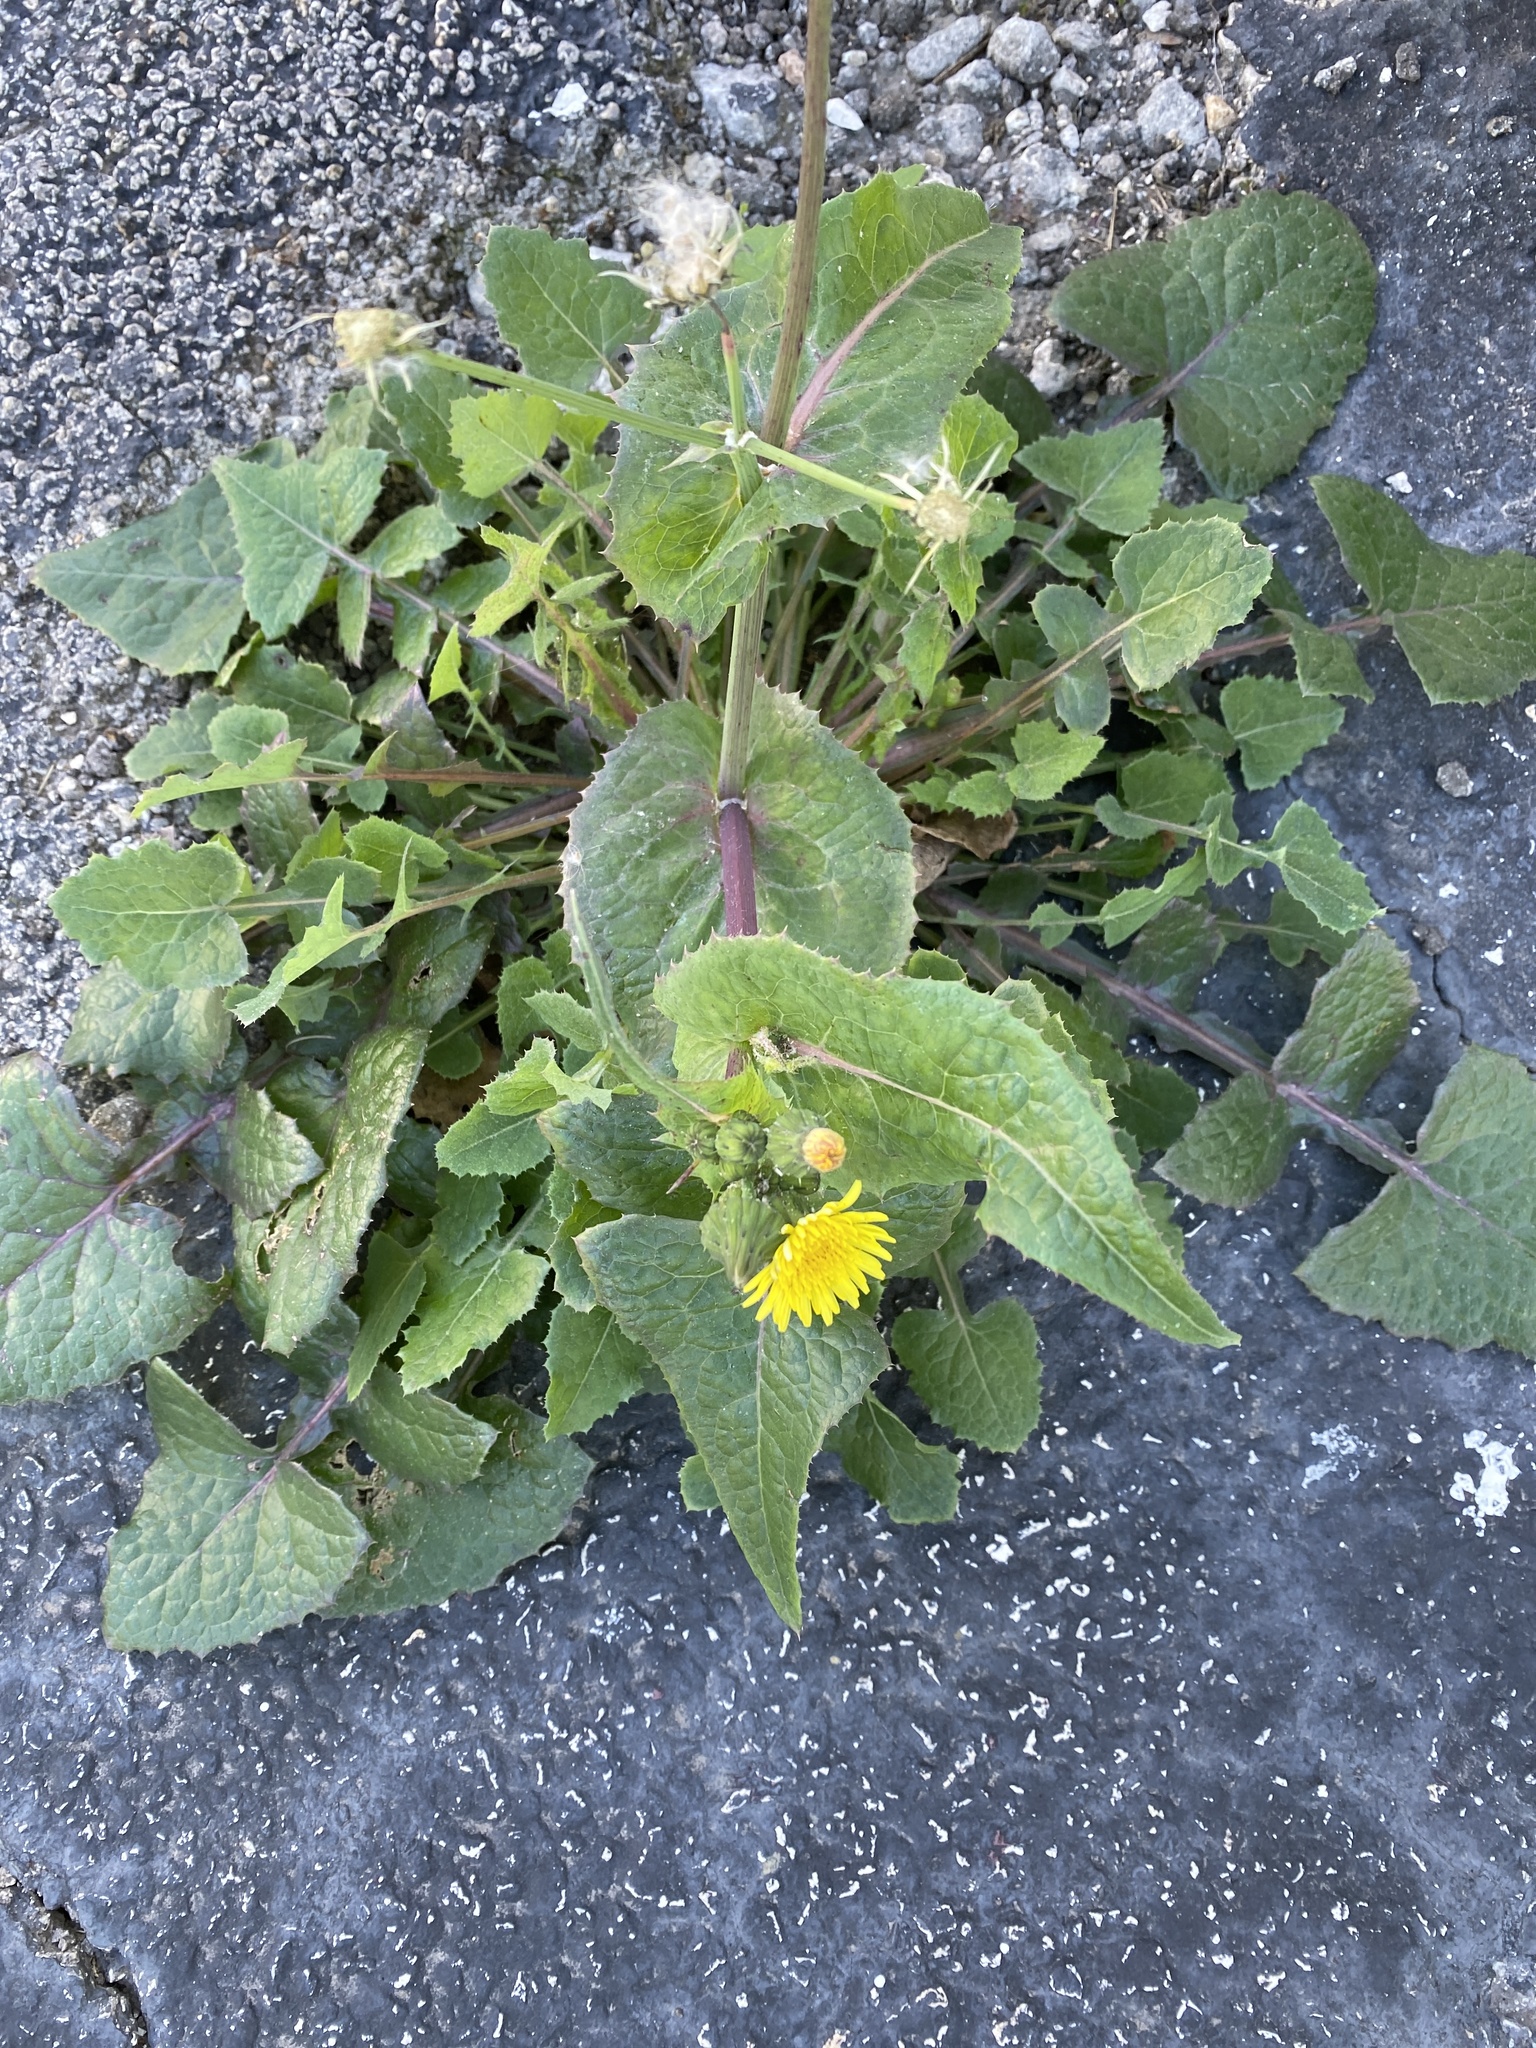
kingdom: Plantae
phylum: Tracheophyta
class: Magnoliopsida
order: Asterales
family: Asteraceae
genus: Sonchus
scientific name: Sonchus oleraceus
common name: Common sowthistle
